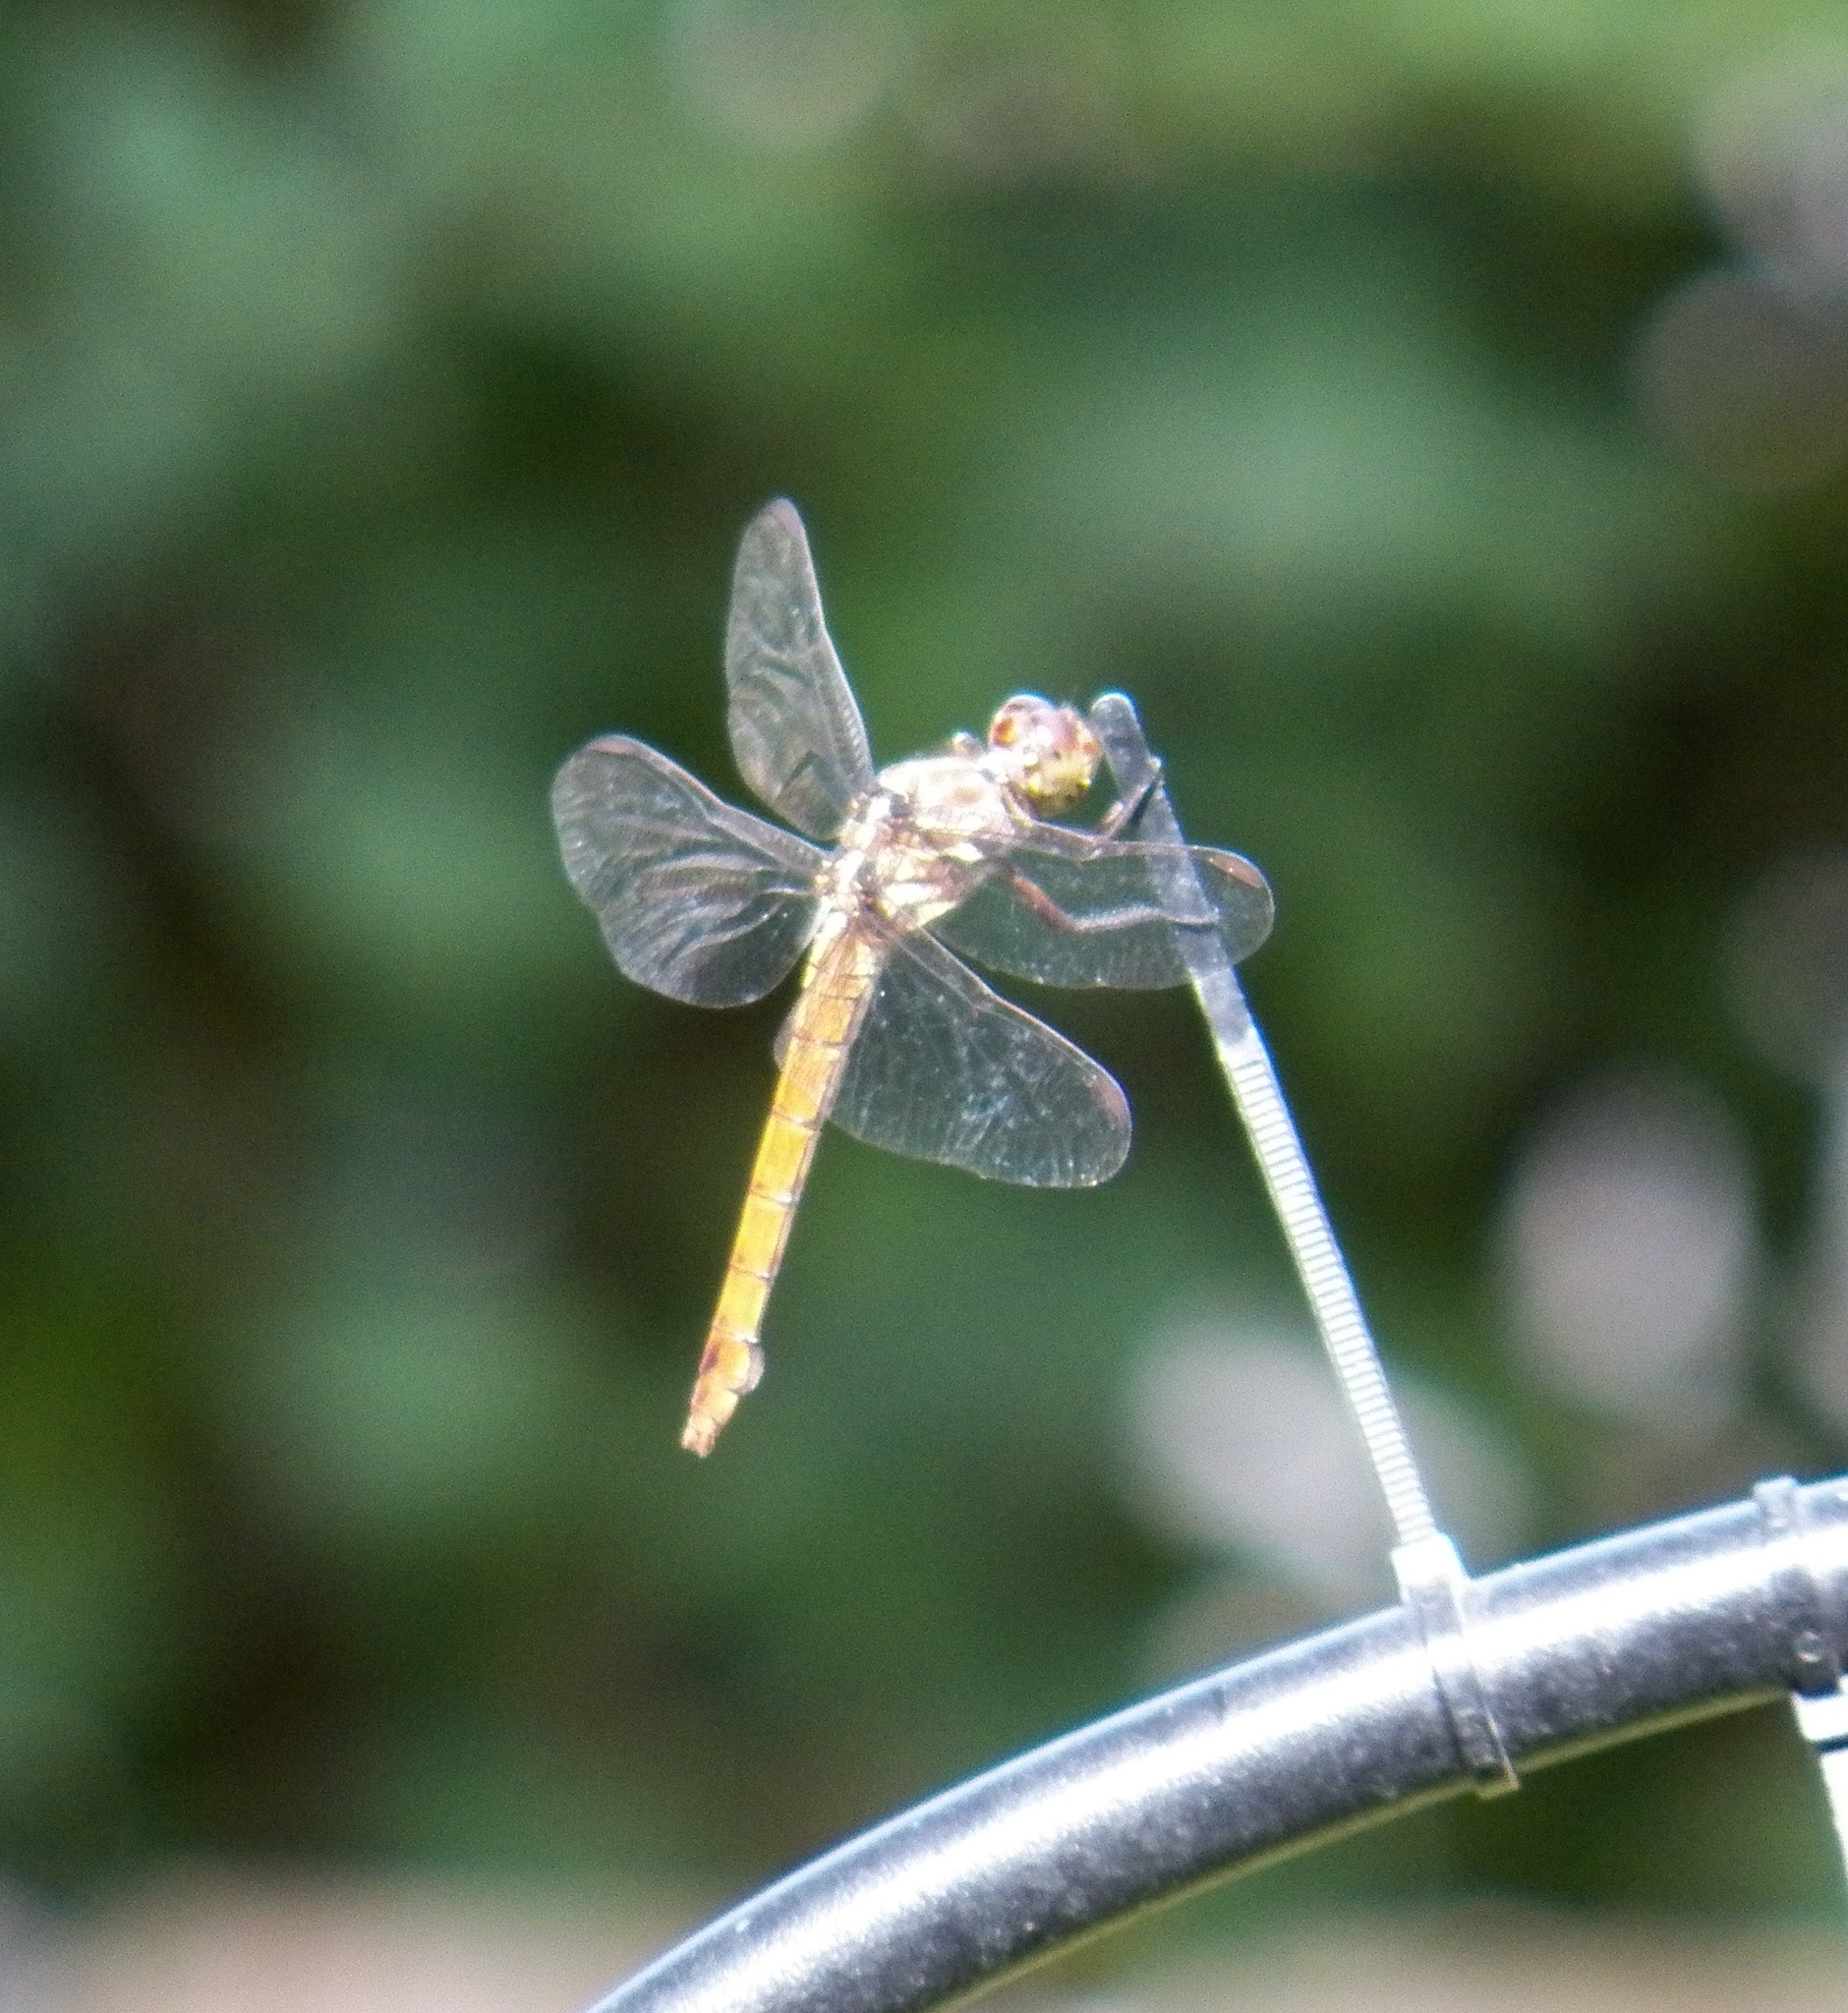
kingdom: Animalia
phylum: Arthropoda
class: Insecta
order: Odonata
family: Libellulidae
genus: Orthemis
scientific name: Orthemis ferruginea
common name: Roseate skimmer
